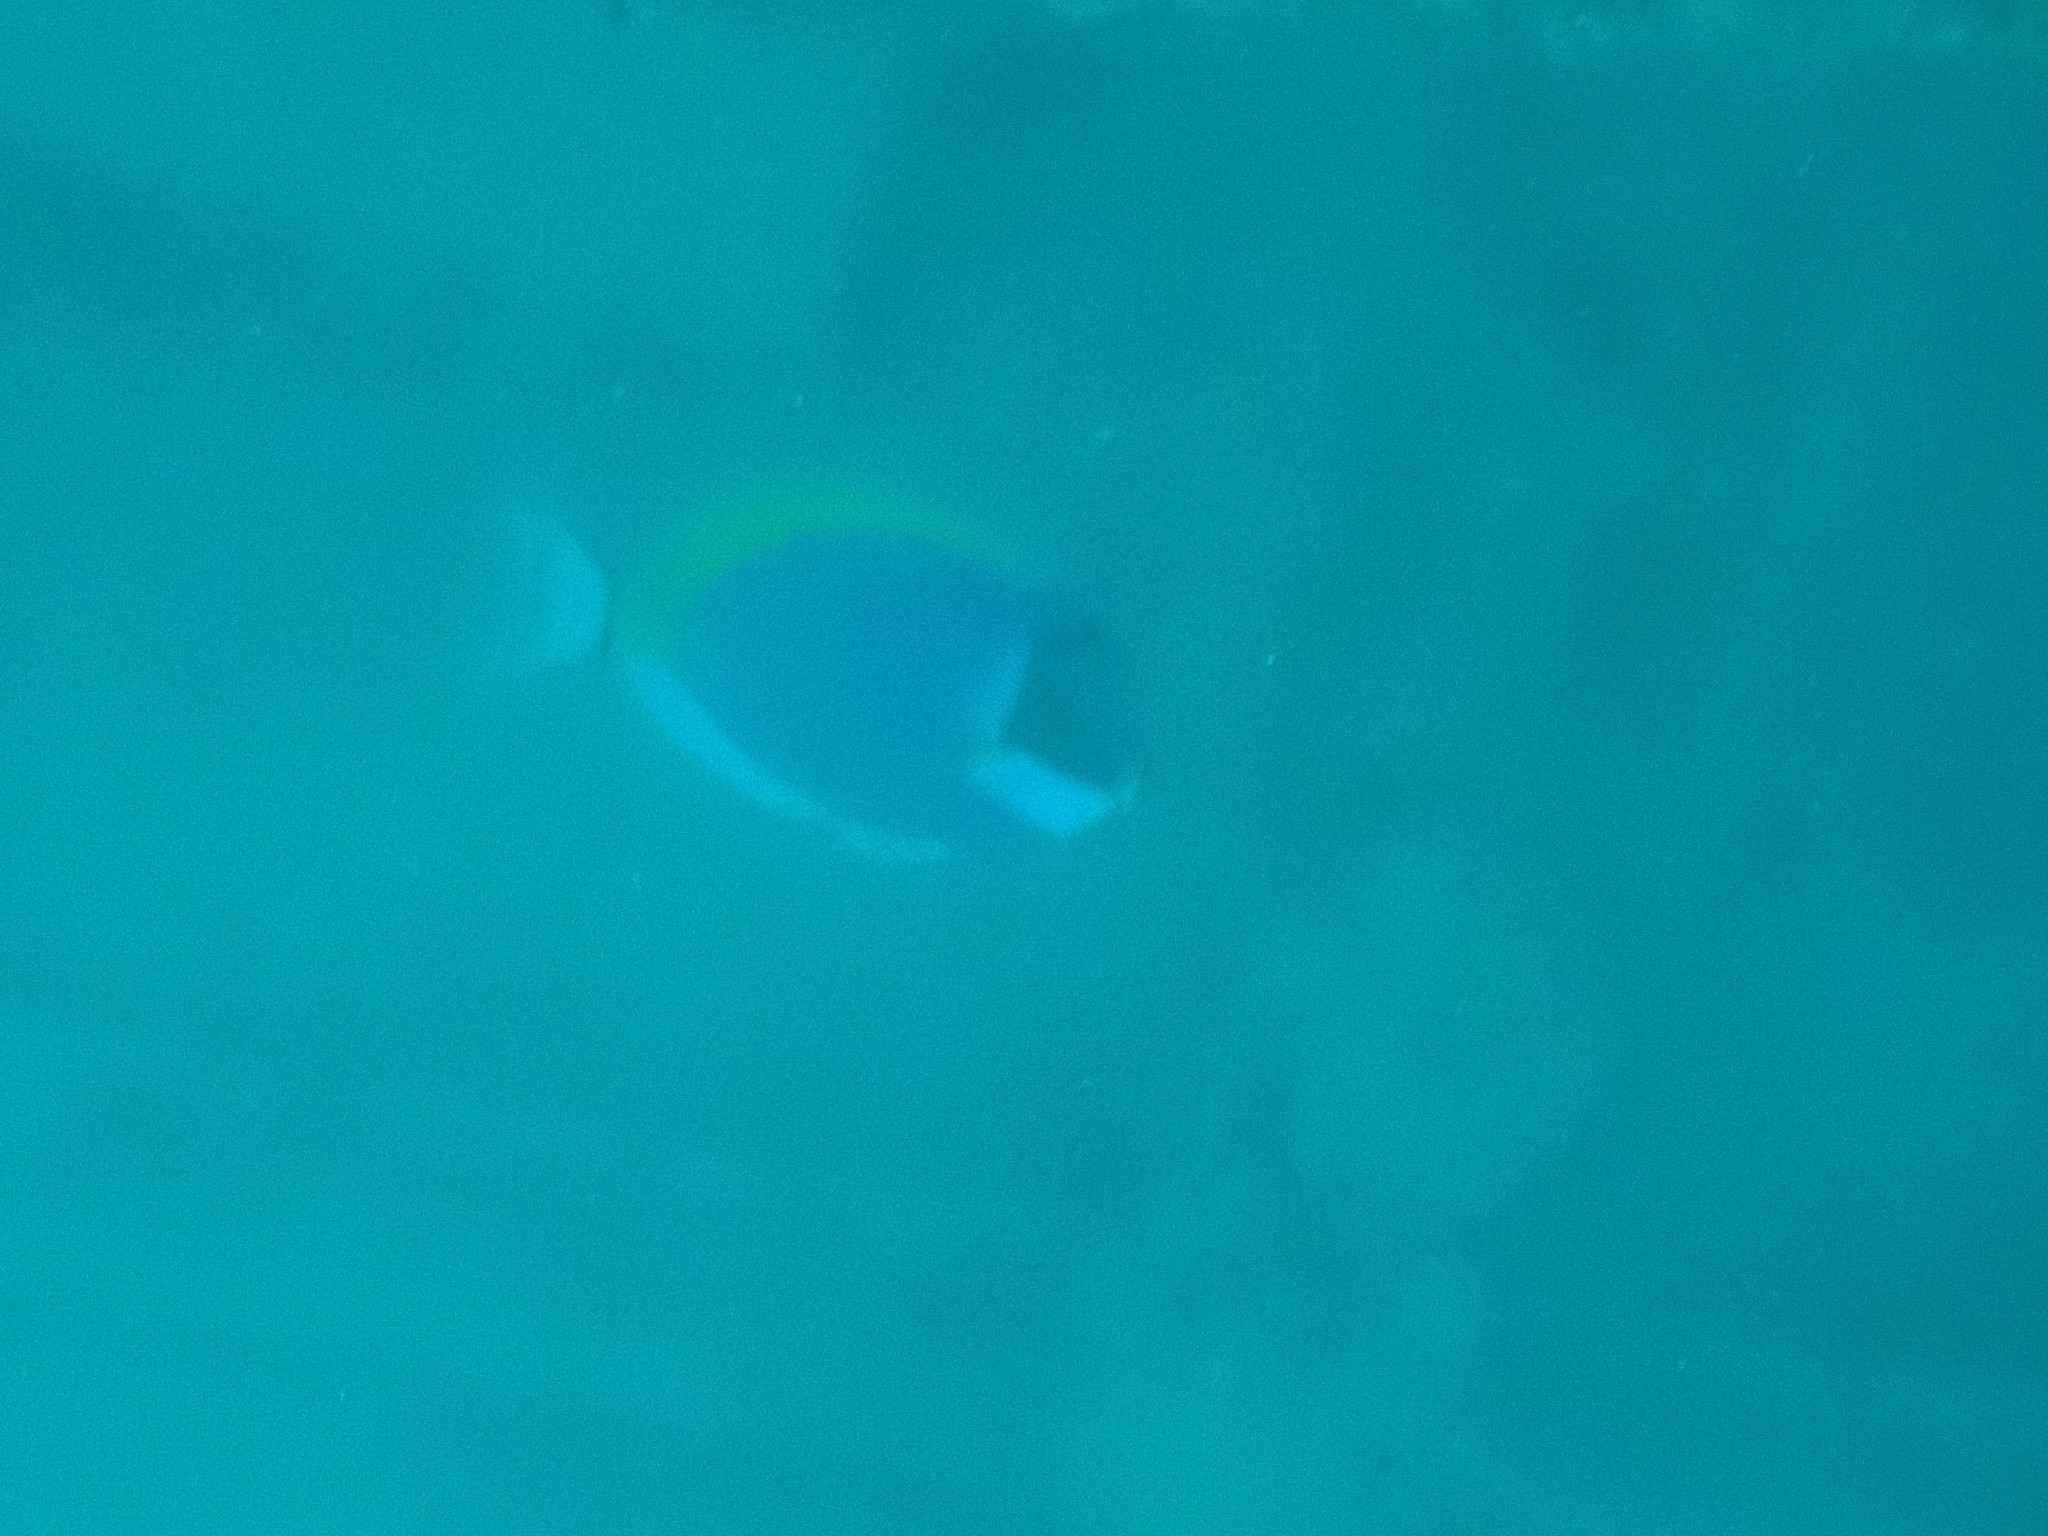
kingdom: Animalia
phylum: Chordata
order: Perciformes
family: Acanthuridae
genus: Acanthurus
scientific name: Acanthurus leucosternon
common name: Blue surgeonfish
